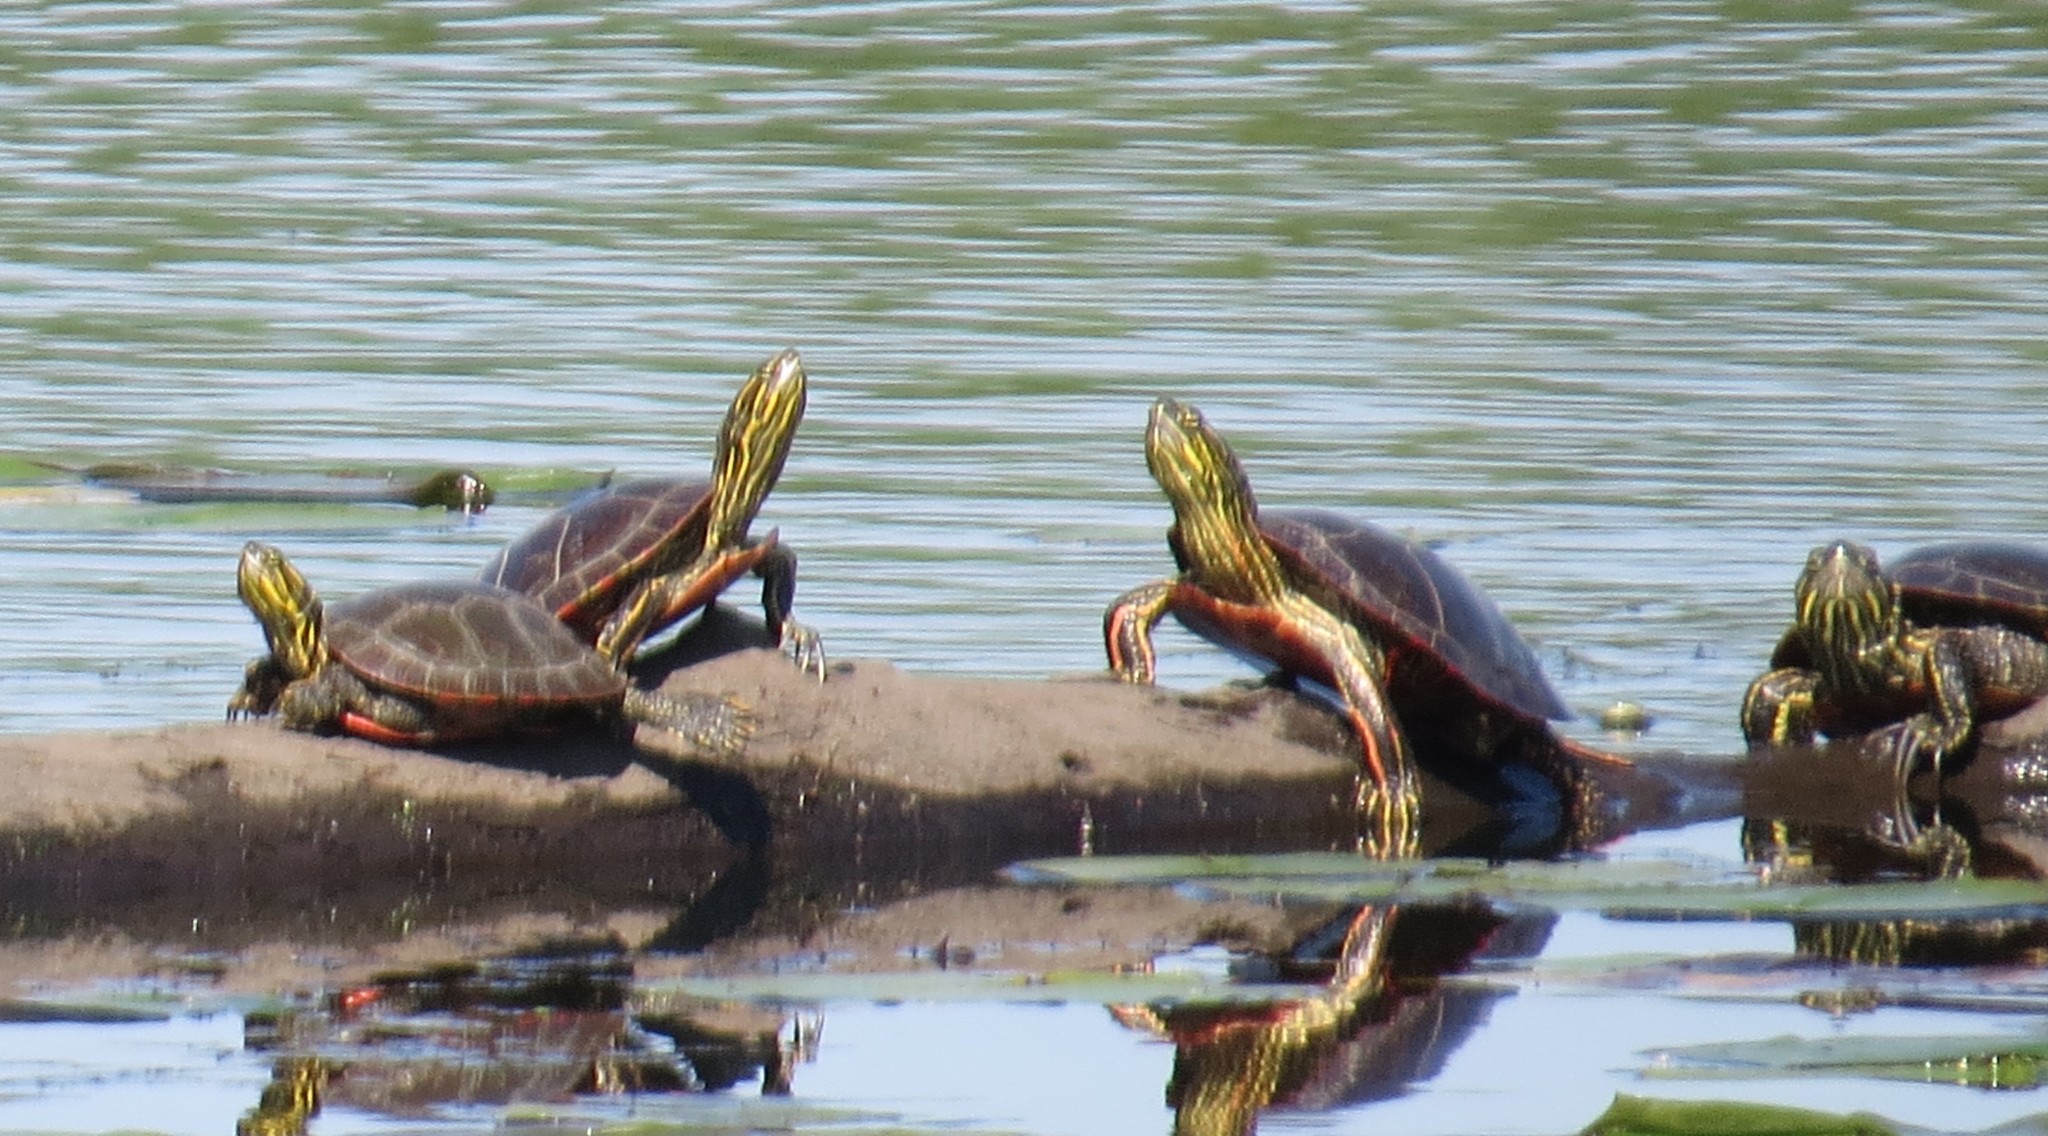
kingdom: Animalia
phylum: Chordata
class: Testudines
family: Emydidae
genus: Chrysemys
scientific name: Chrysemys picta
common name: Painted turtle
